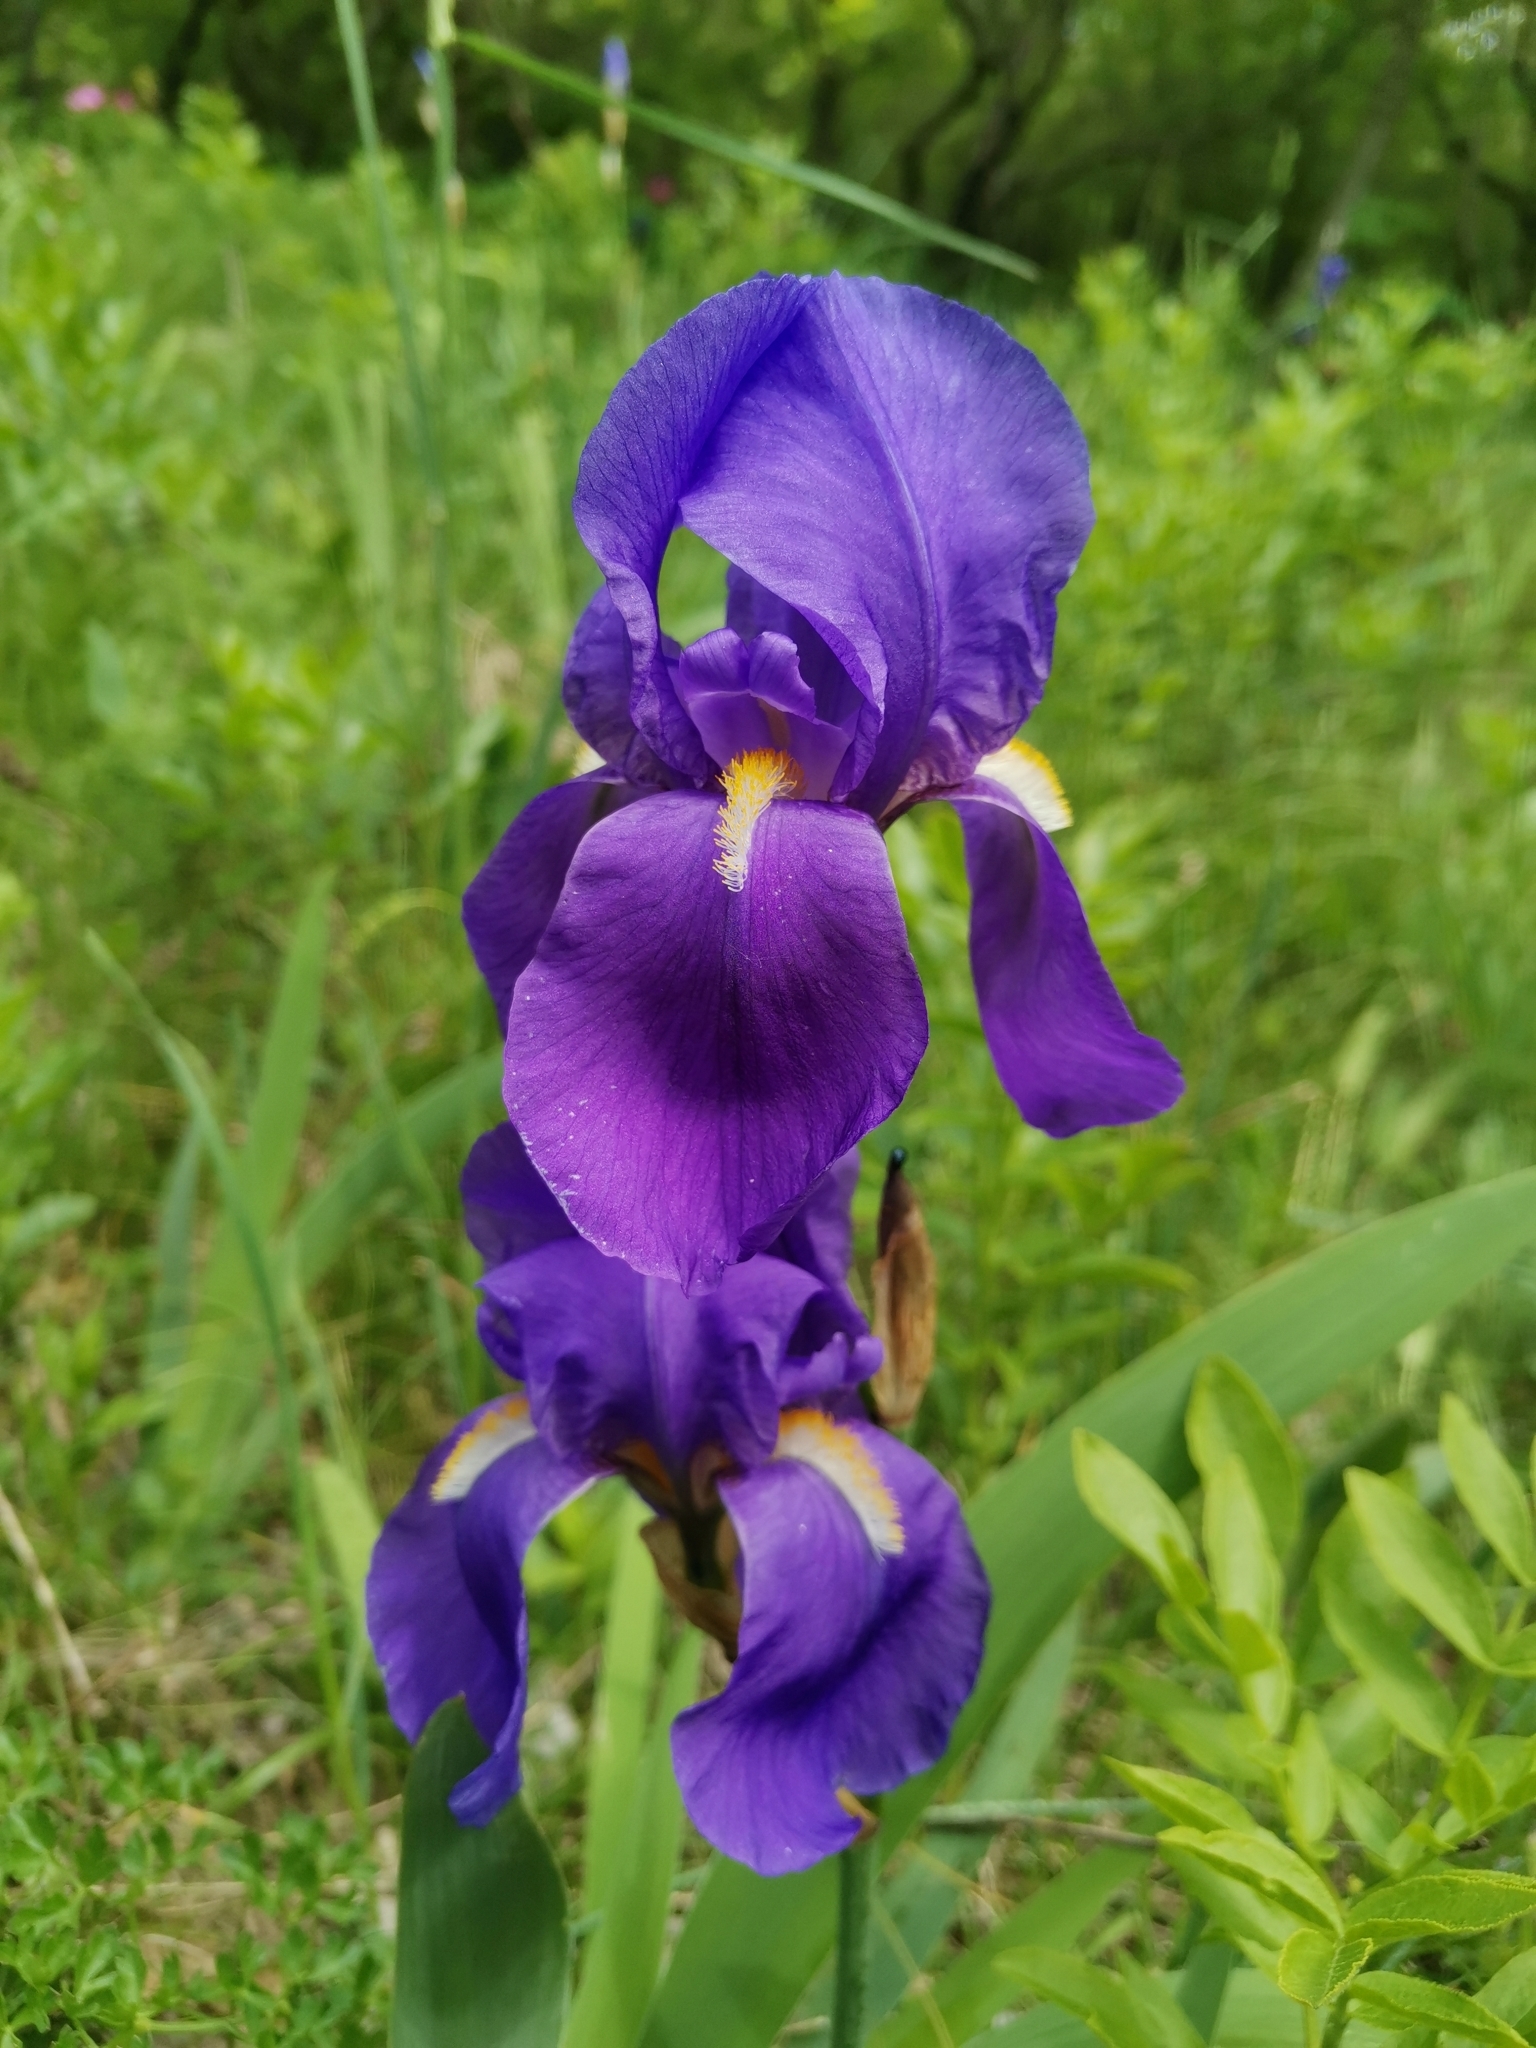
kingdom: Plantae
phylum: Tracheophyta
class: Liliopsida
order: Asparagales
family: Iridaceae
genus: Iris
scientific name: Iris pallida
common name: Sweet iris
